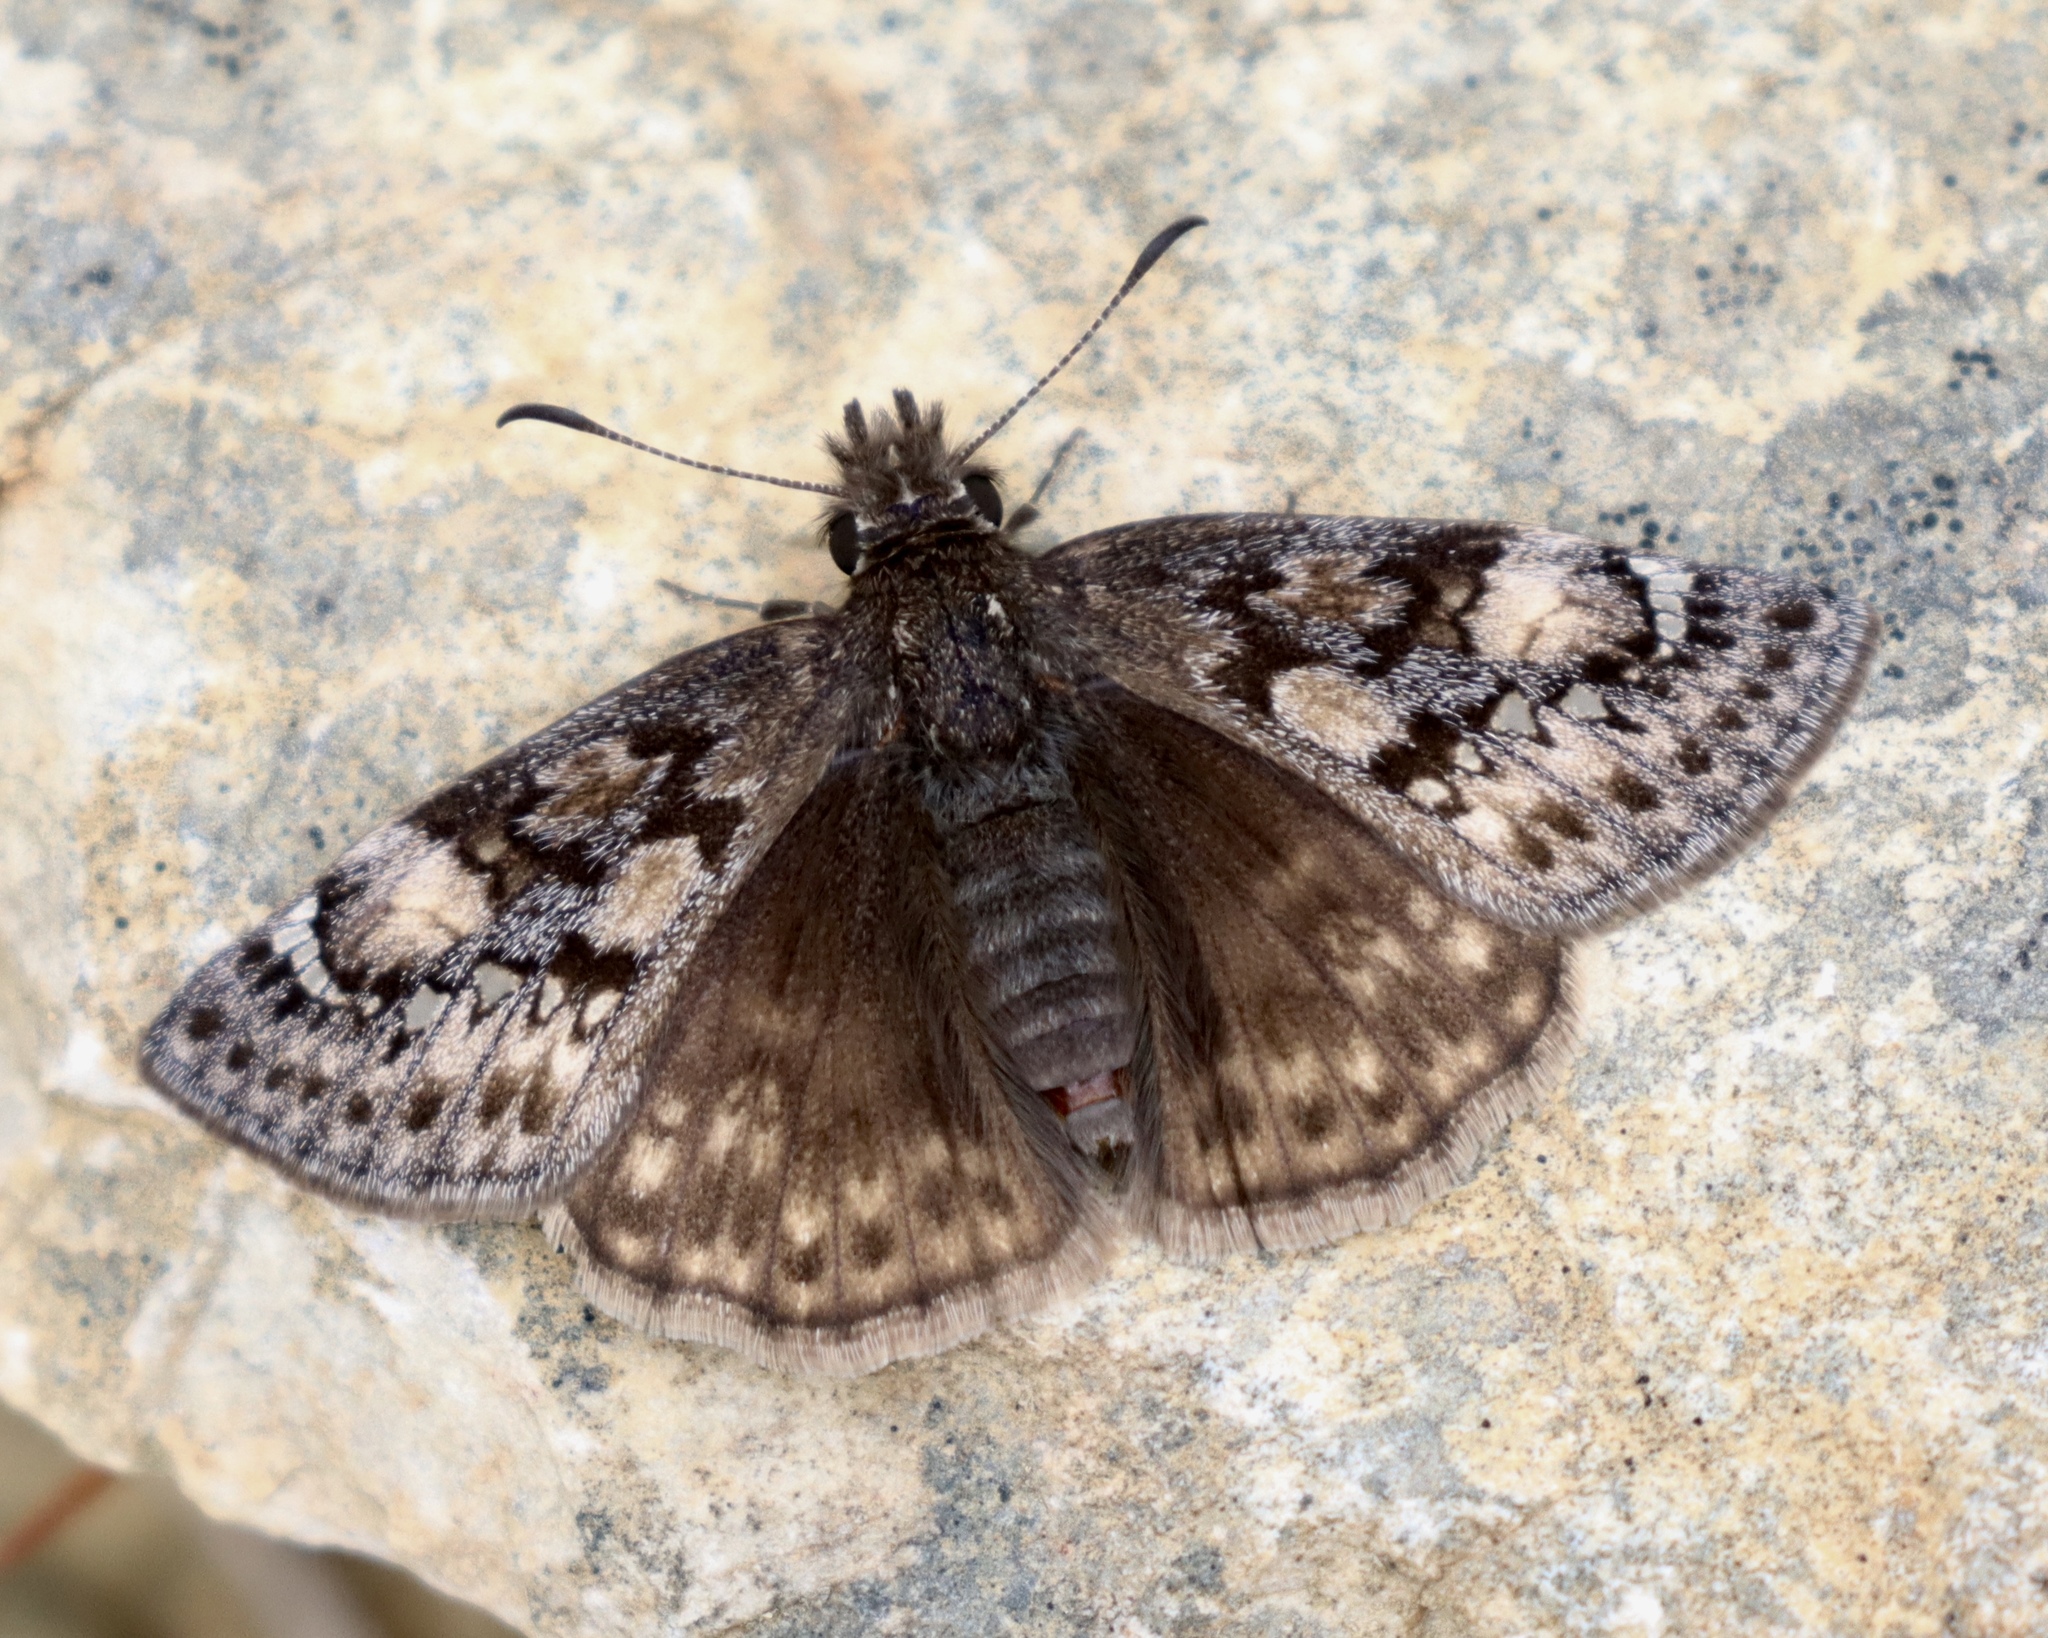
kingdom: Animalia
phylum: Arthropoda
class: Insecta
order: Lepidoptera
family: Hesperiidae
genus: Erynnis
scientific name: Erynnis juvenalis
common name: Juvenal's duskywing
